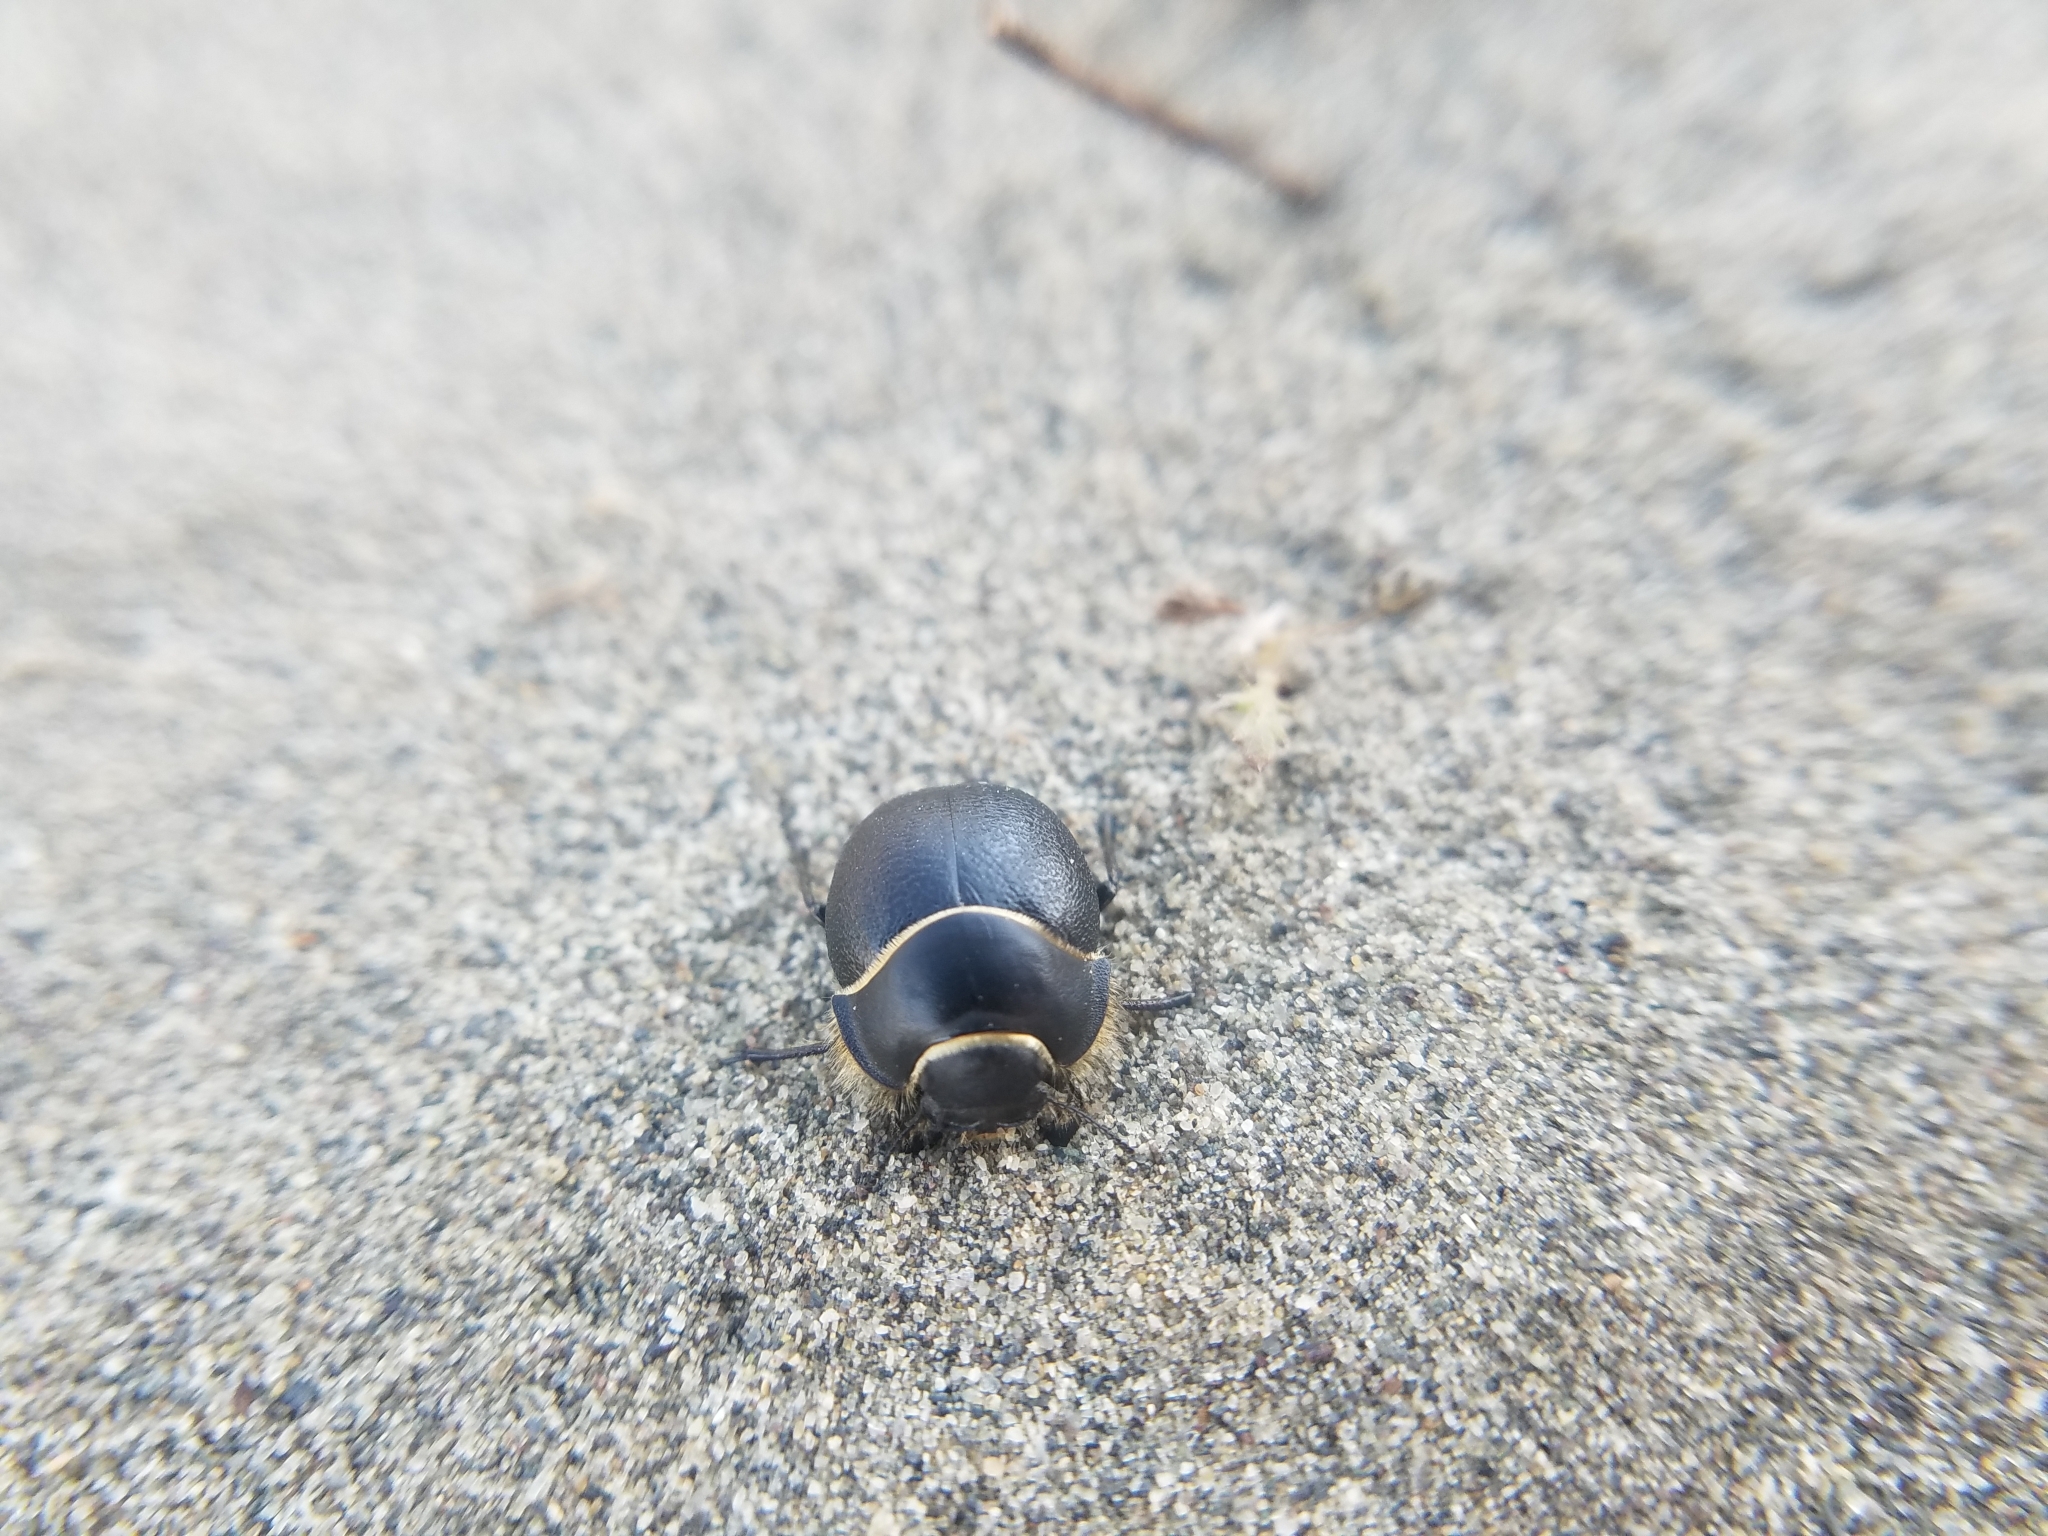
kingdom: Animalia
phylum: Arthropoda
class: Insecta
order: Coleoptera
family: Tenebrionidae
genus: Eusattus
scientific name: Eusattus muricatus
